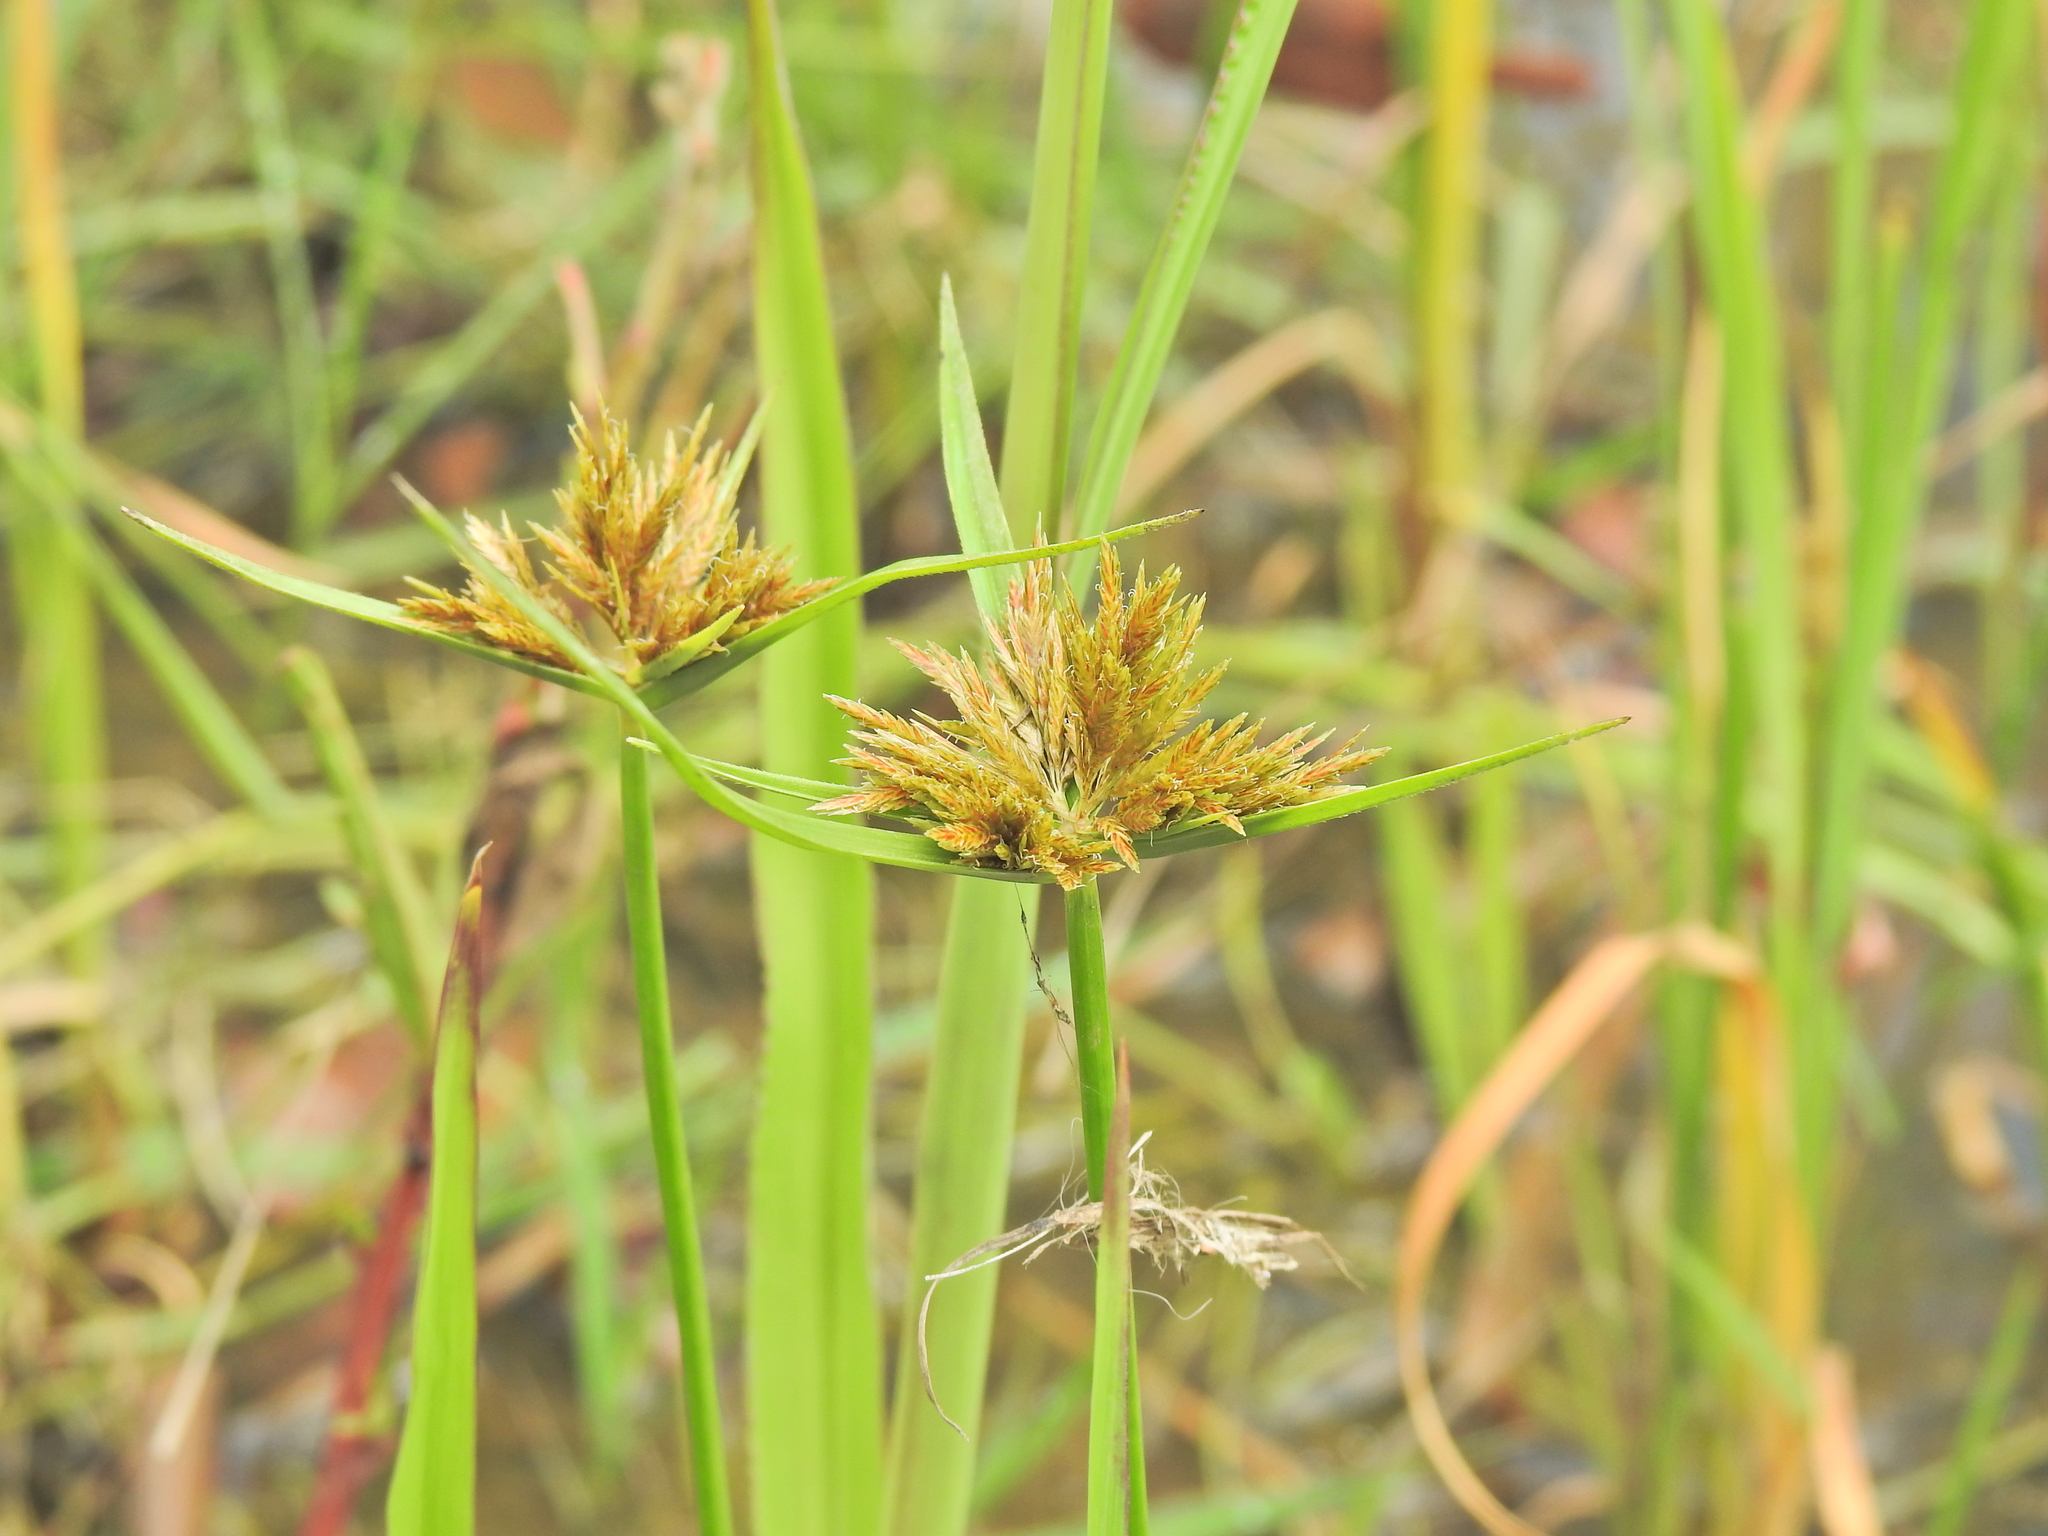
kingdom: Plantae
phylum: Tracheophyta
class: Liliopsida
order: Poales
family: Cyperaceae
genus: Cyperus
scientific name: Cyperus polystachyos
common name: Bunchy flat sedge
